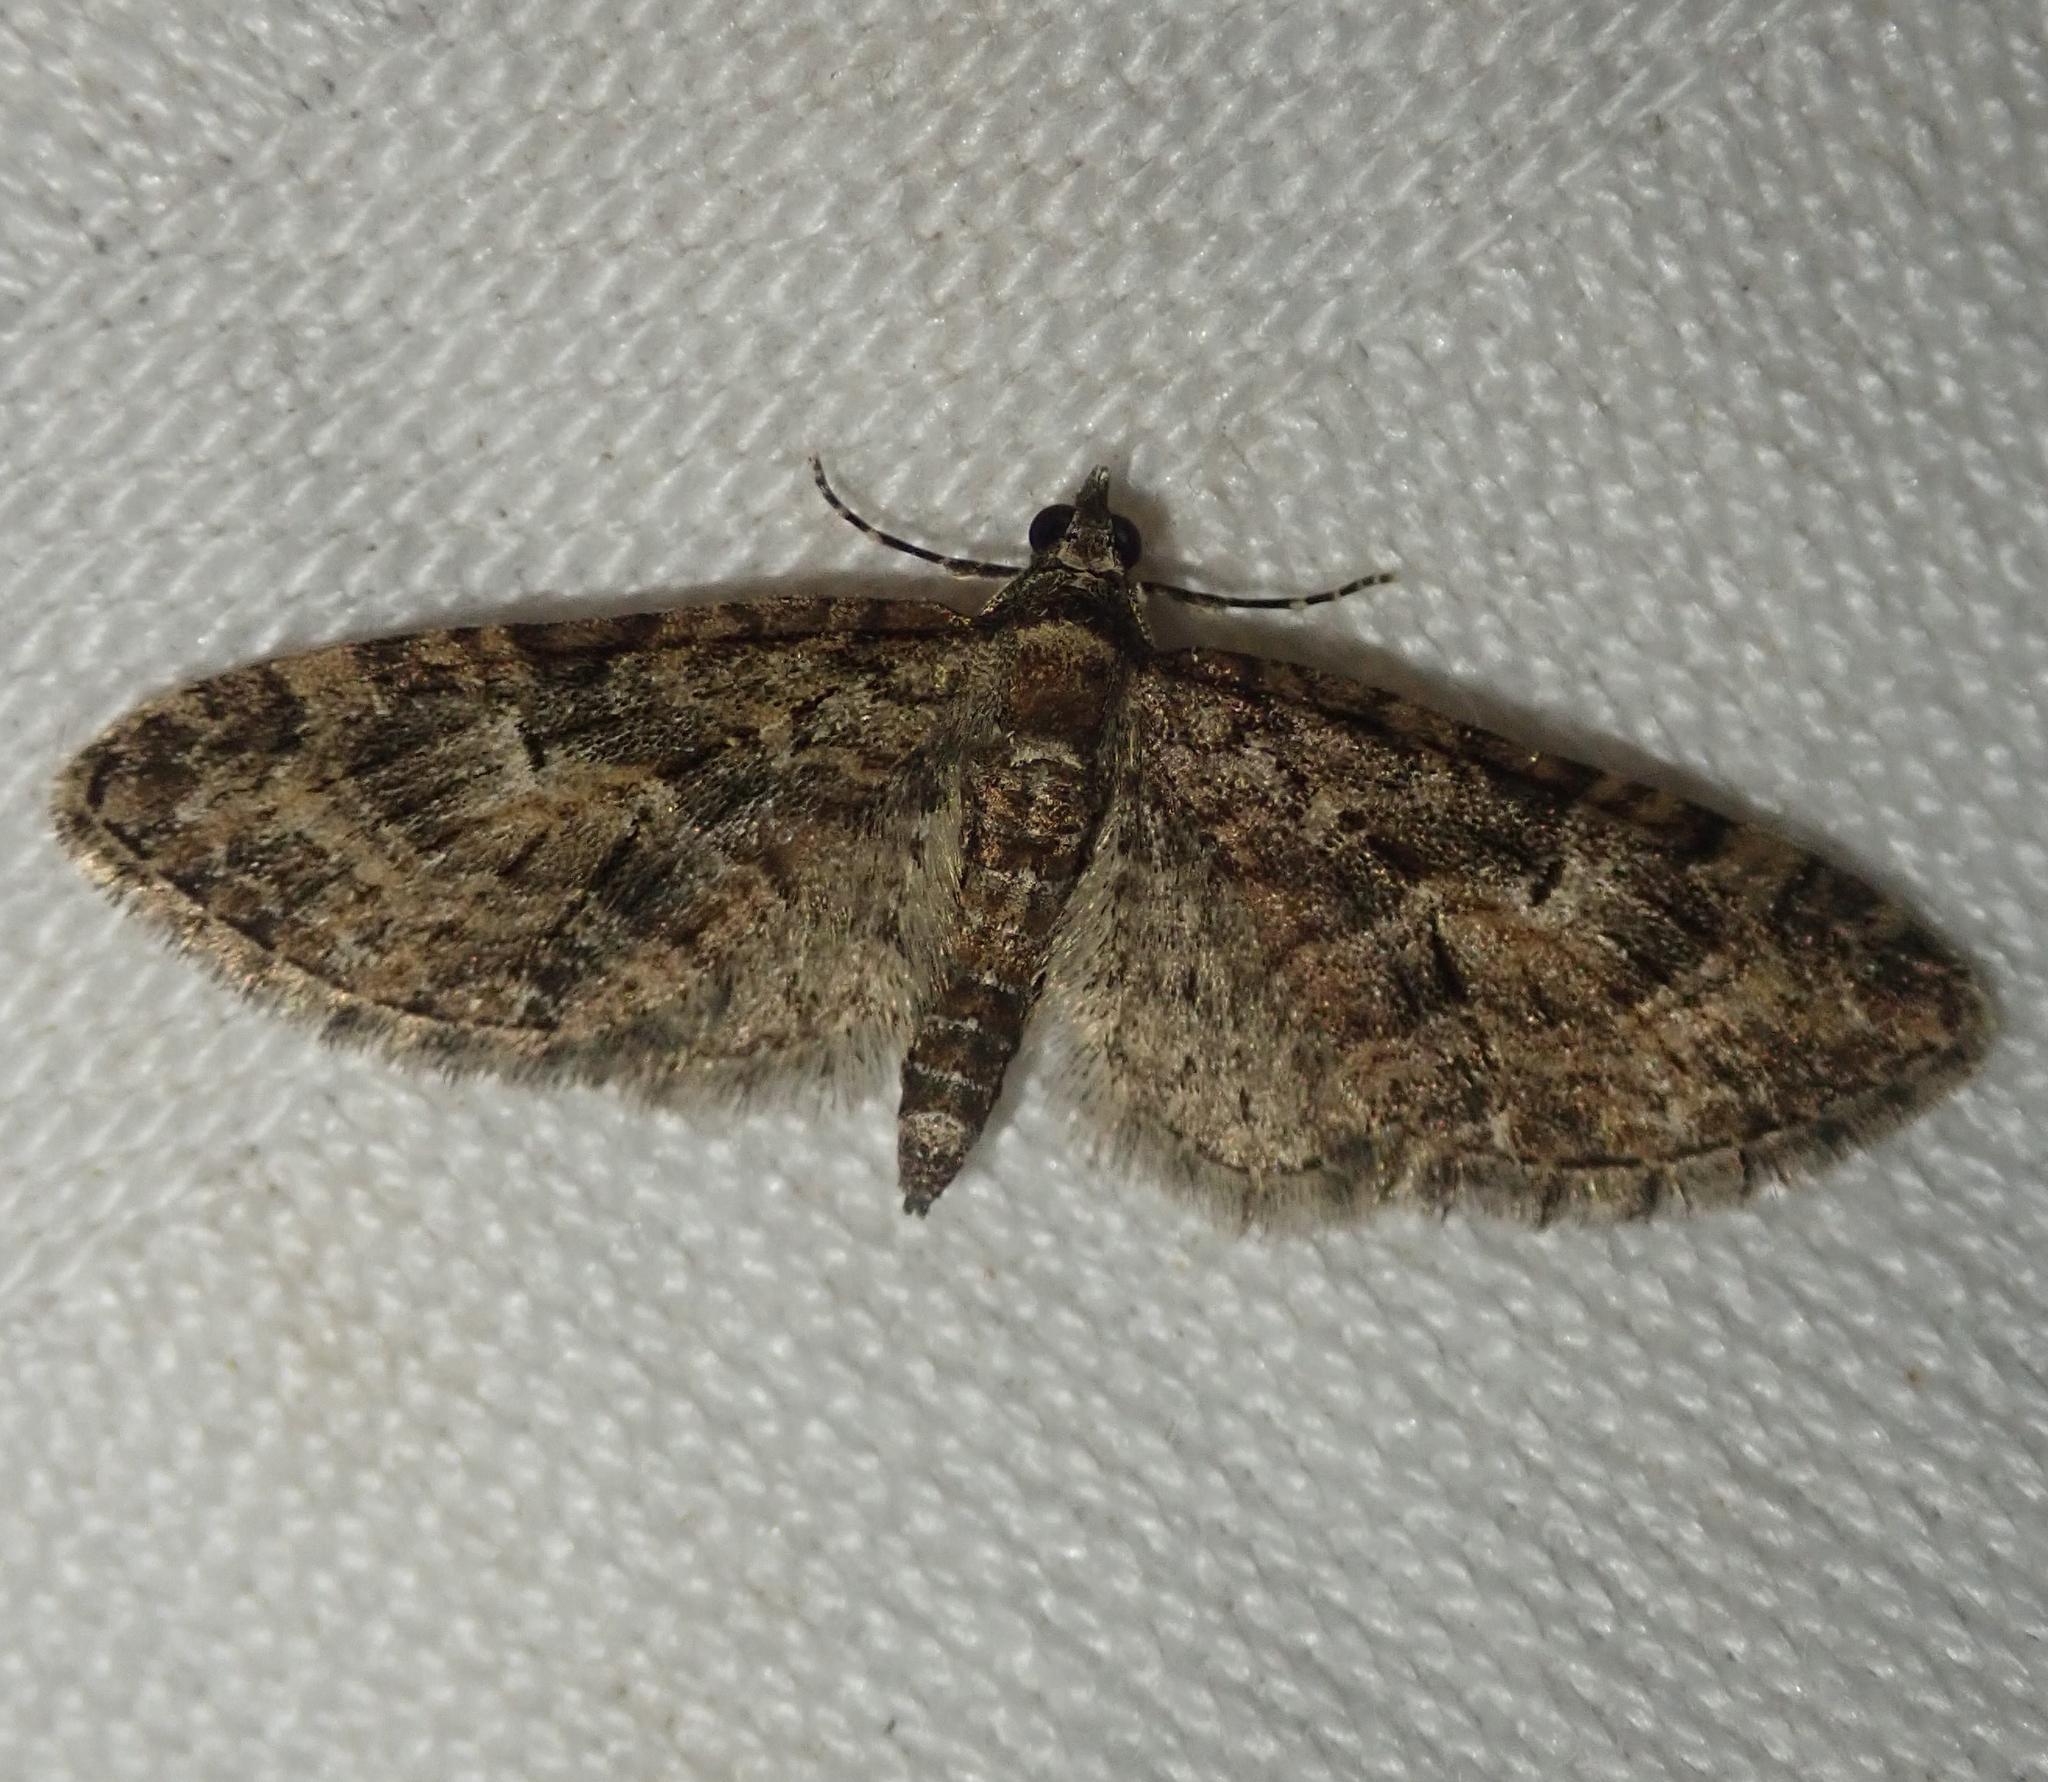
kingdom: Animalia
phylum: Arthropoda
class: Insecta
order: Lepidoptera
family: Geometridae
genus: Eupithecia
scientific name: Eupithecia abbreviata
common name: Brindled pug
